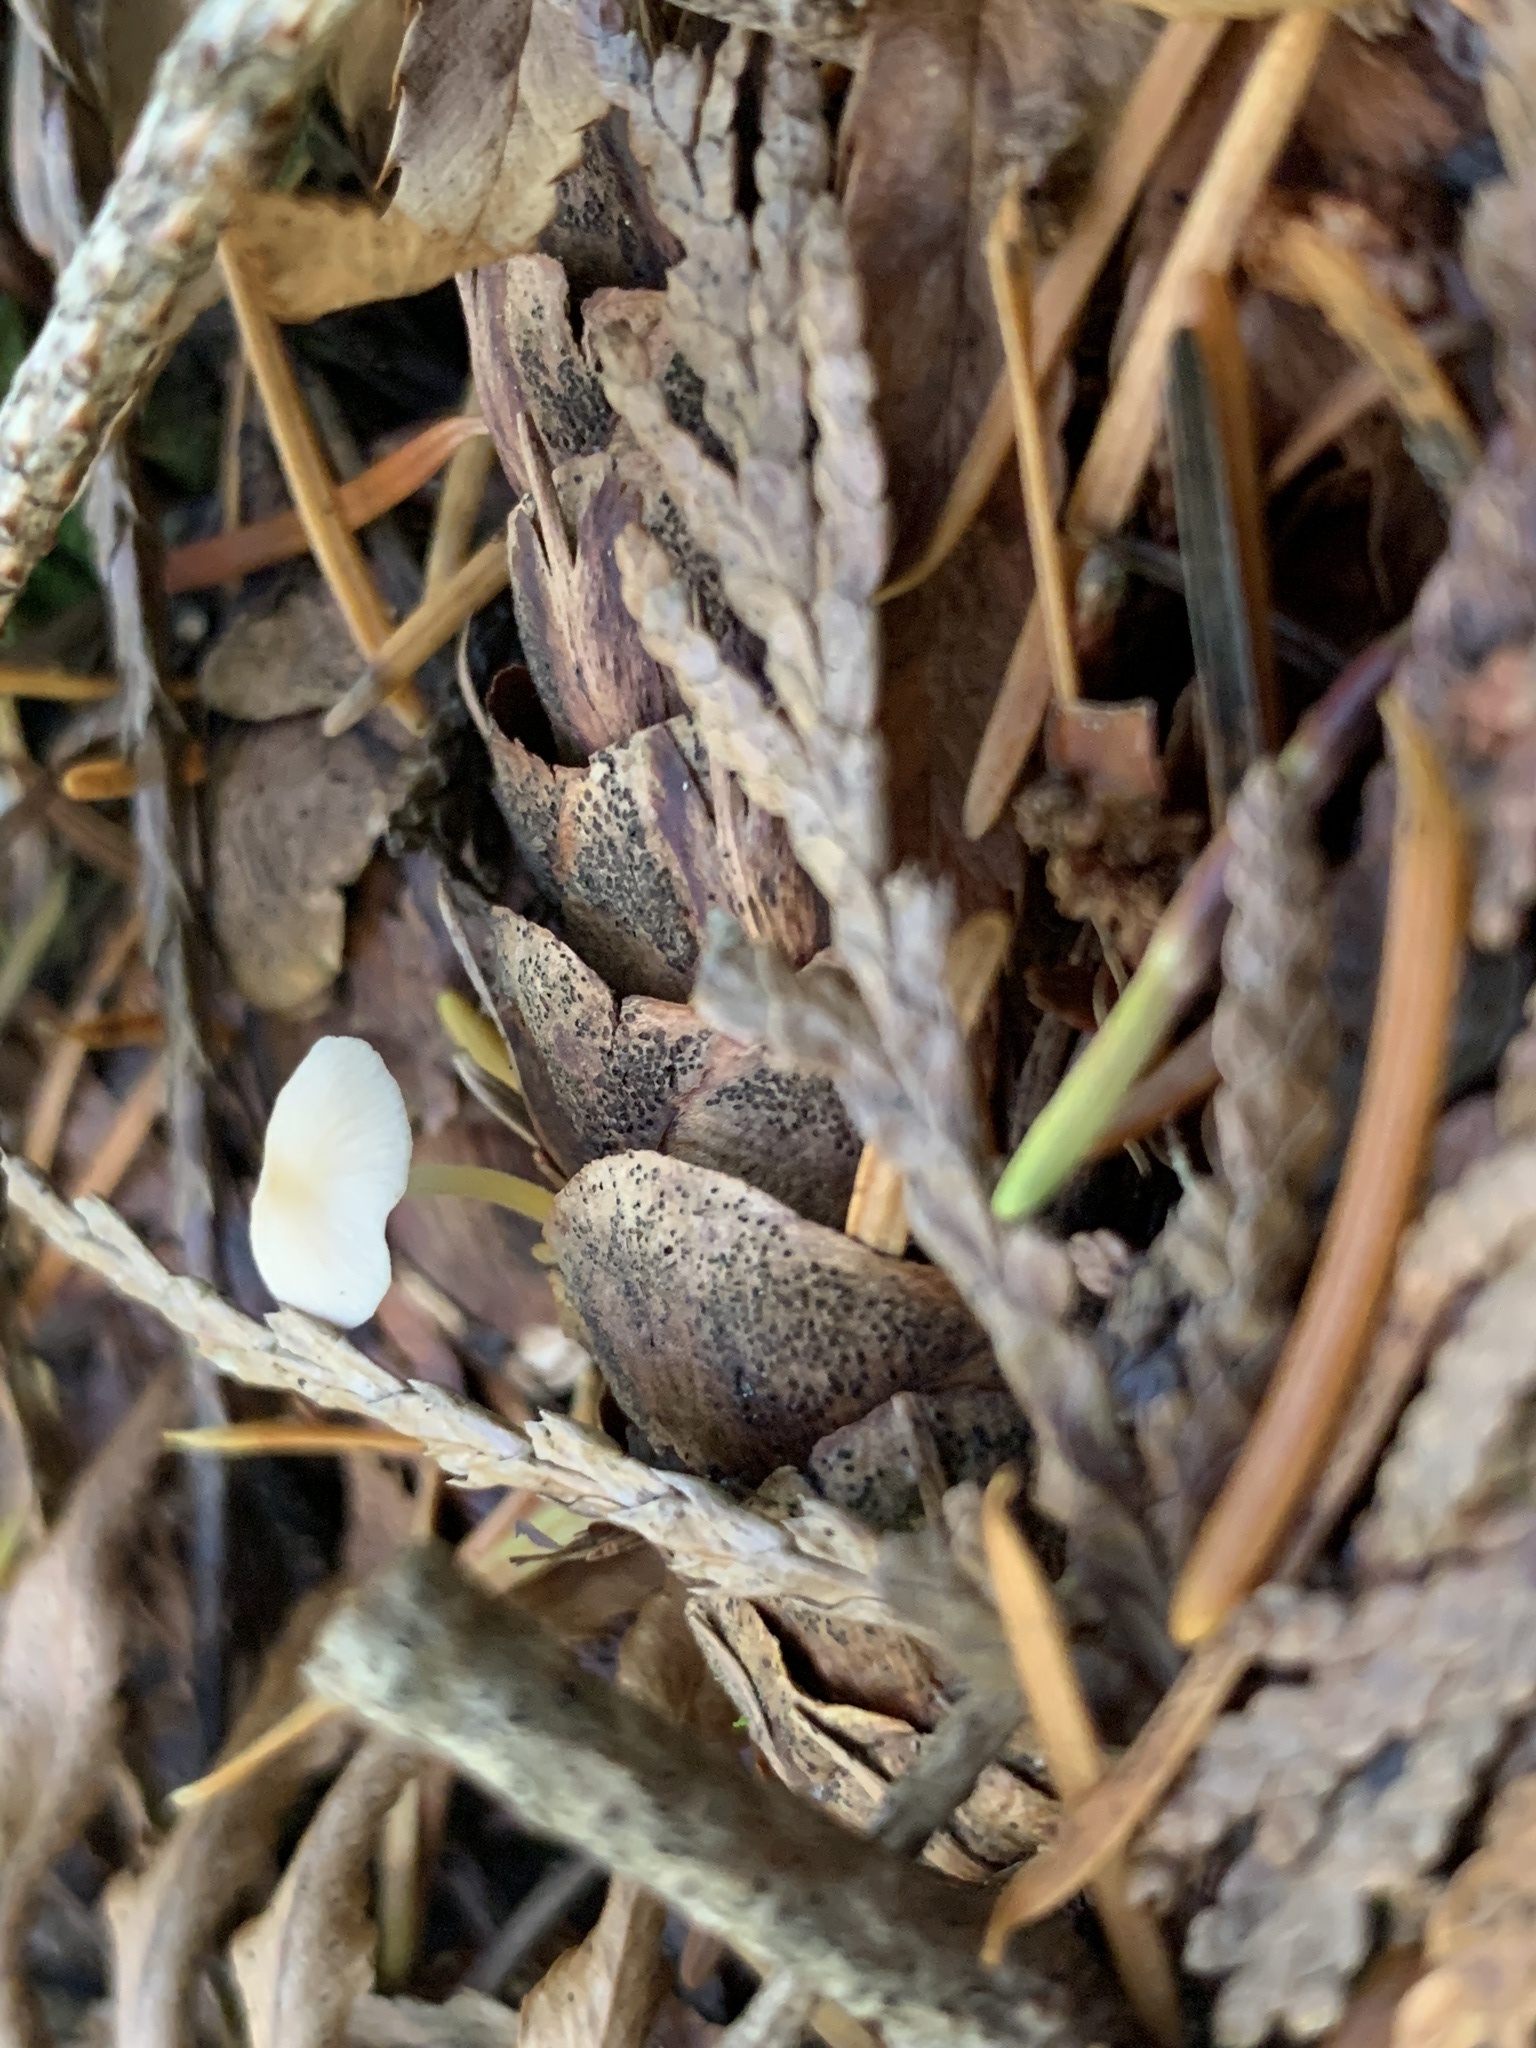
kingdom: Fungi
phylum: Basidiomycota
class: Agaricomycetes
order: Agaricales
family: Physalacriaceae
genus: Strobilurus
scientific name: Strobilurus trullisatus
